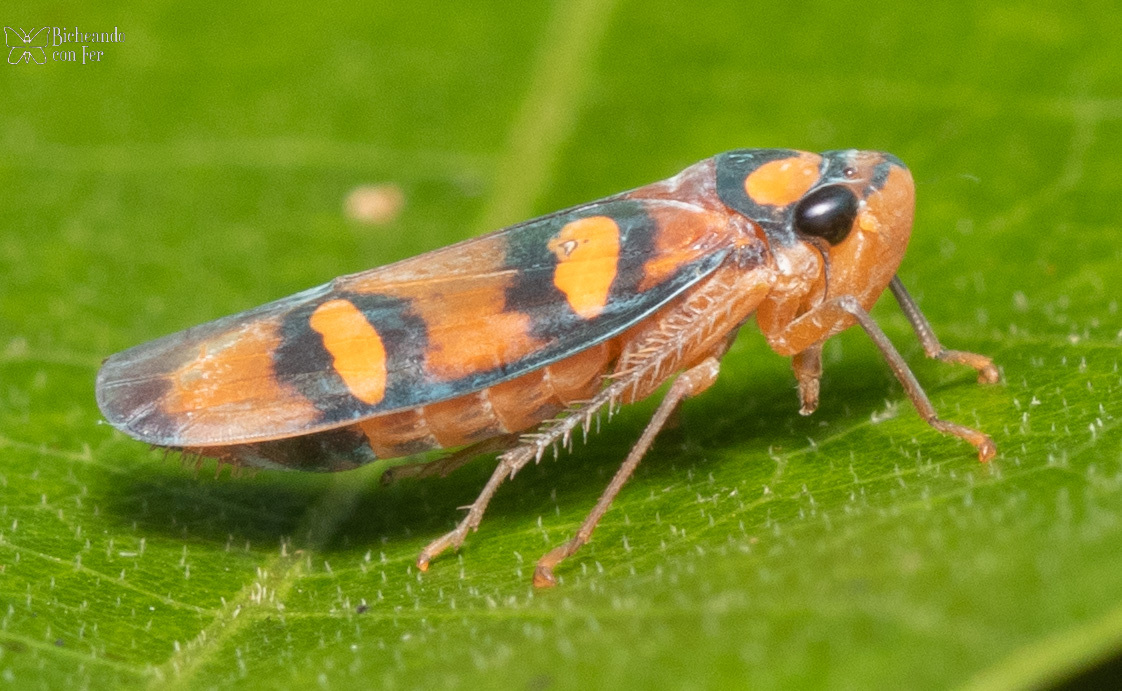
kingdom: Animalia
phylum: Arthropoda
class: Insecta
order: Hemiptera
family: Cicadellidae
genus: Pawiloma
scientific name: Pawiloma jucunda
